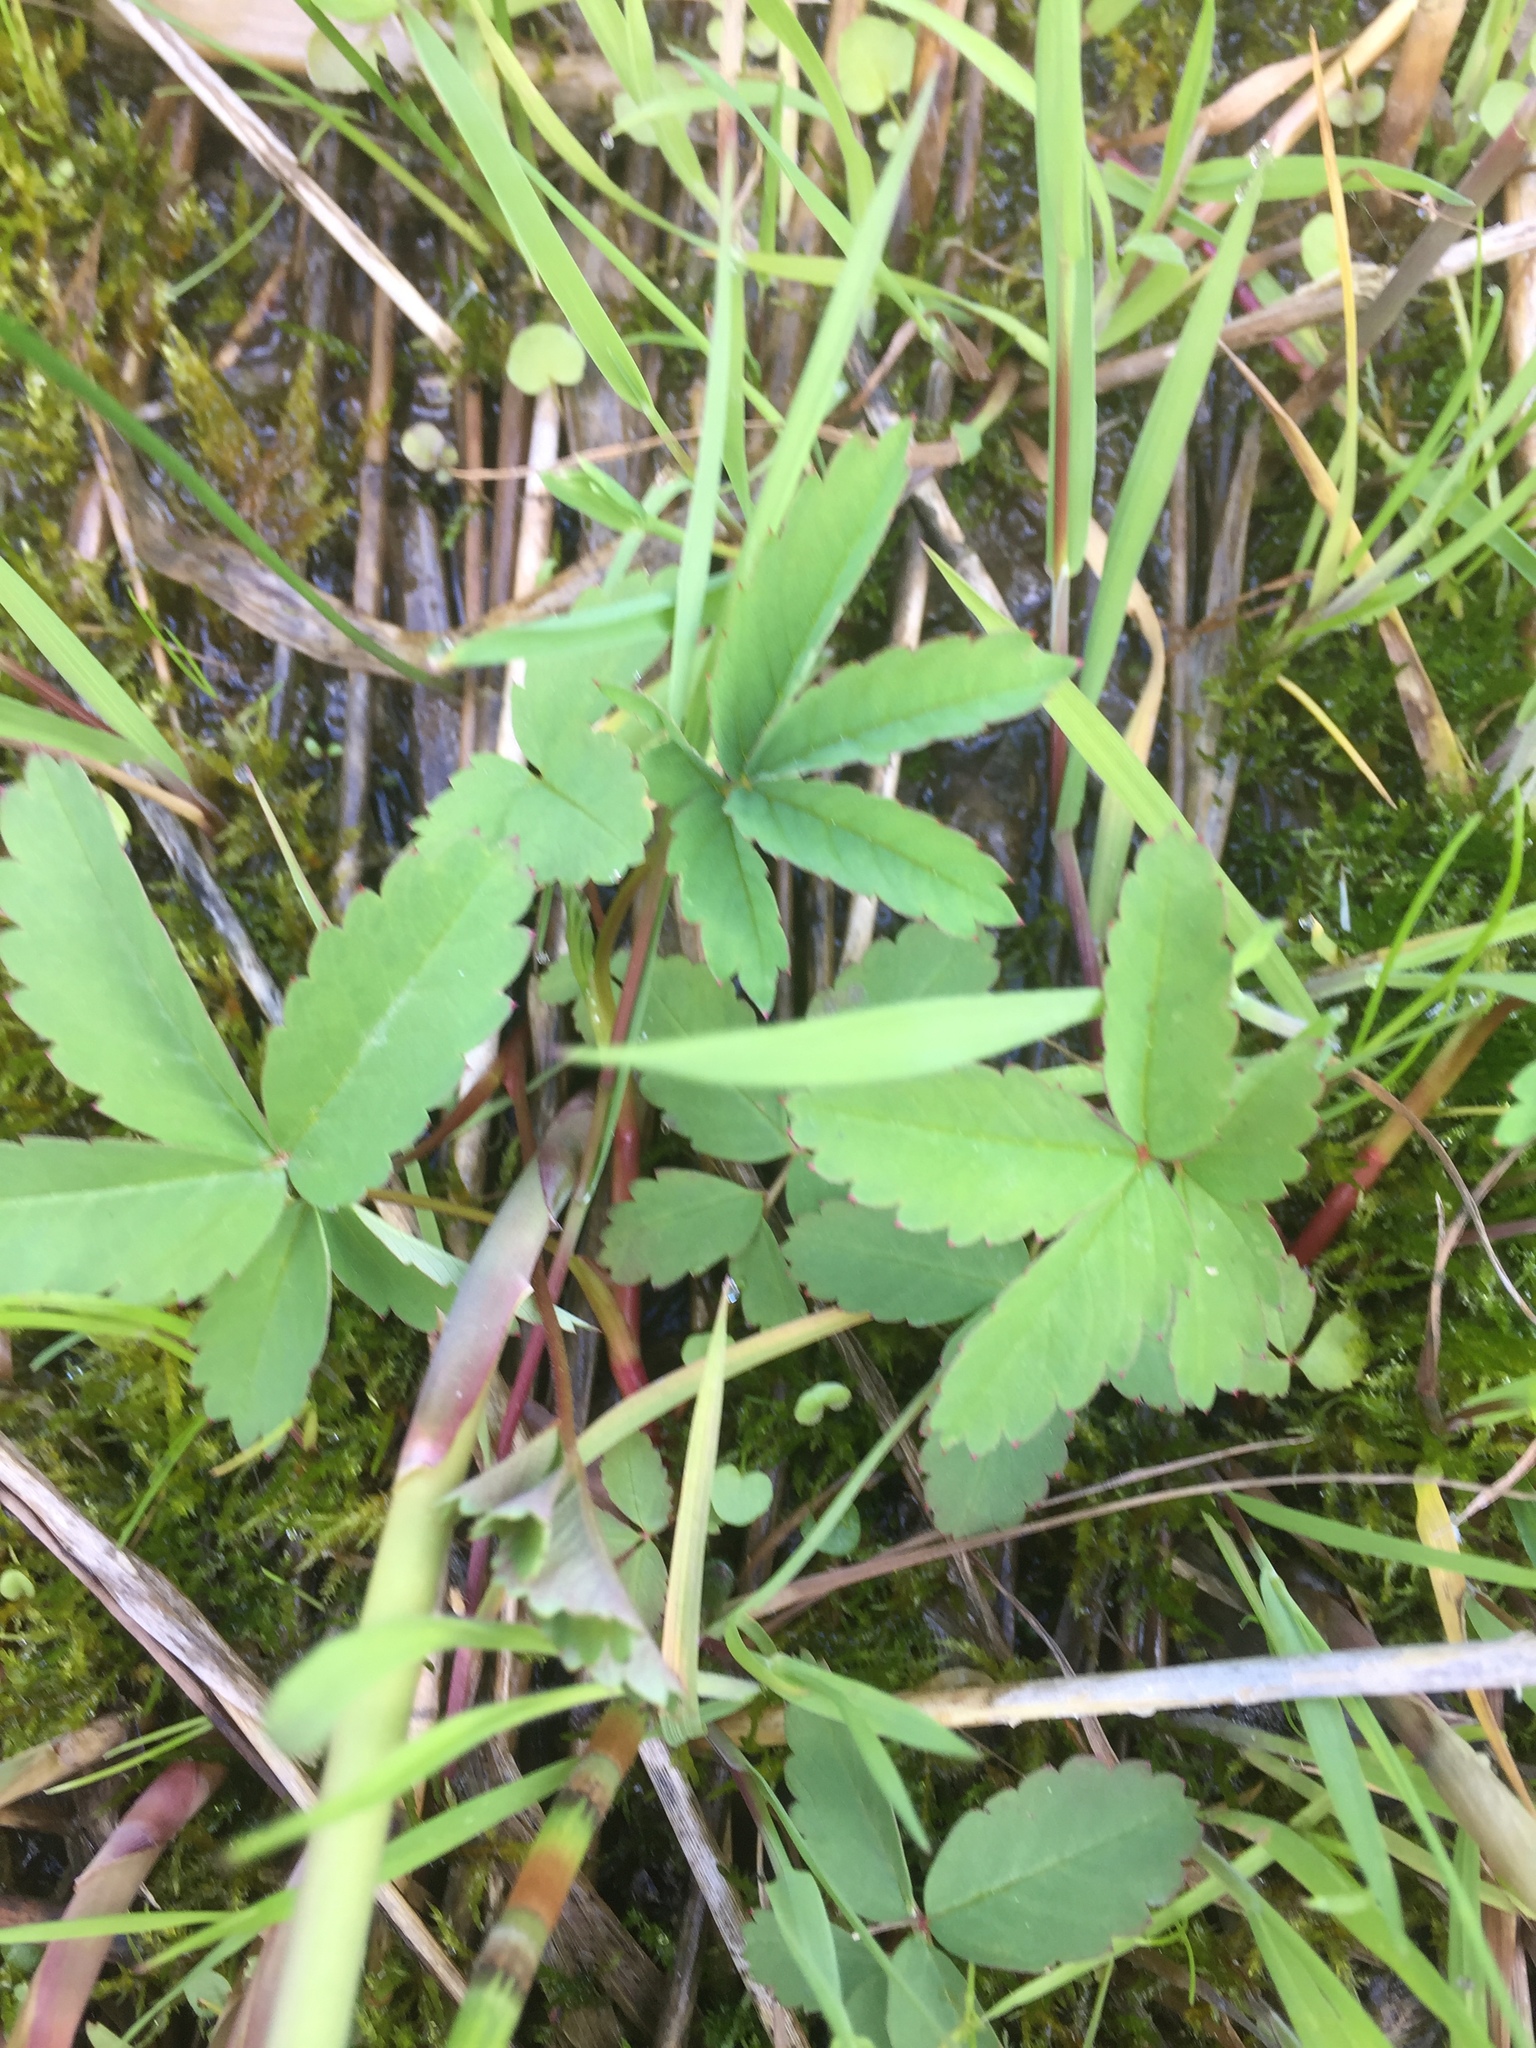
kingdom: Plantae
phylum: Tracheophyta
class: Magnoliopsida
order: Rosales
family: Rosaceae
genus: Comarum
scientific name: Comarum palustre
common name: Marsh cinquefoil
